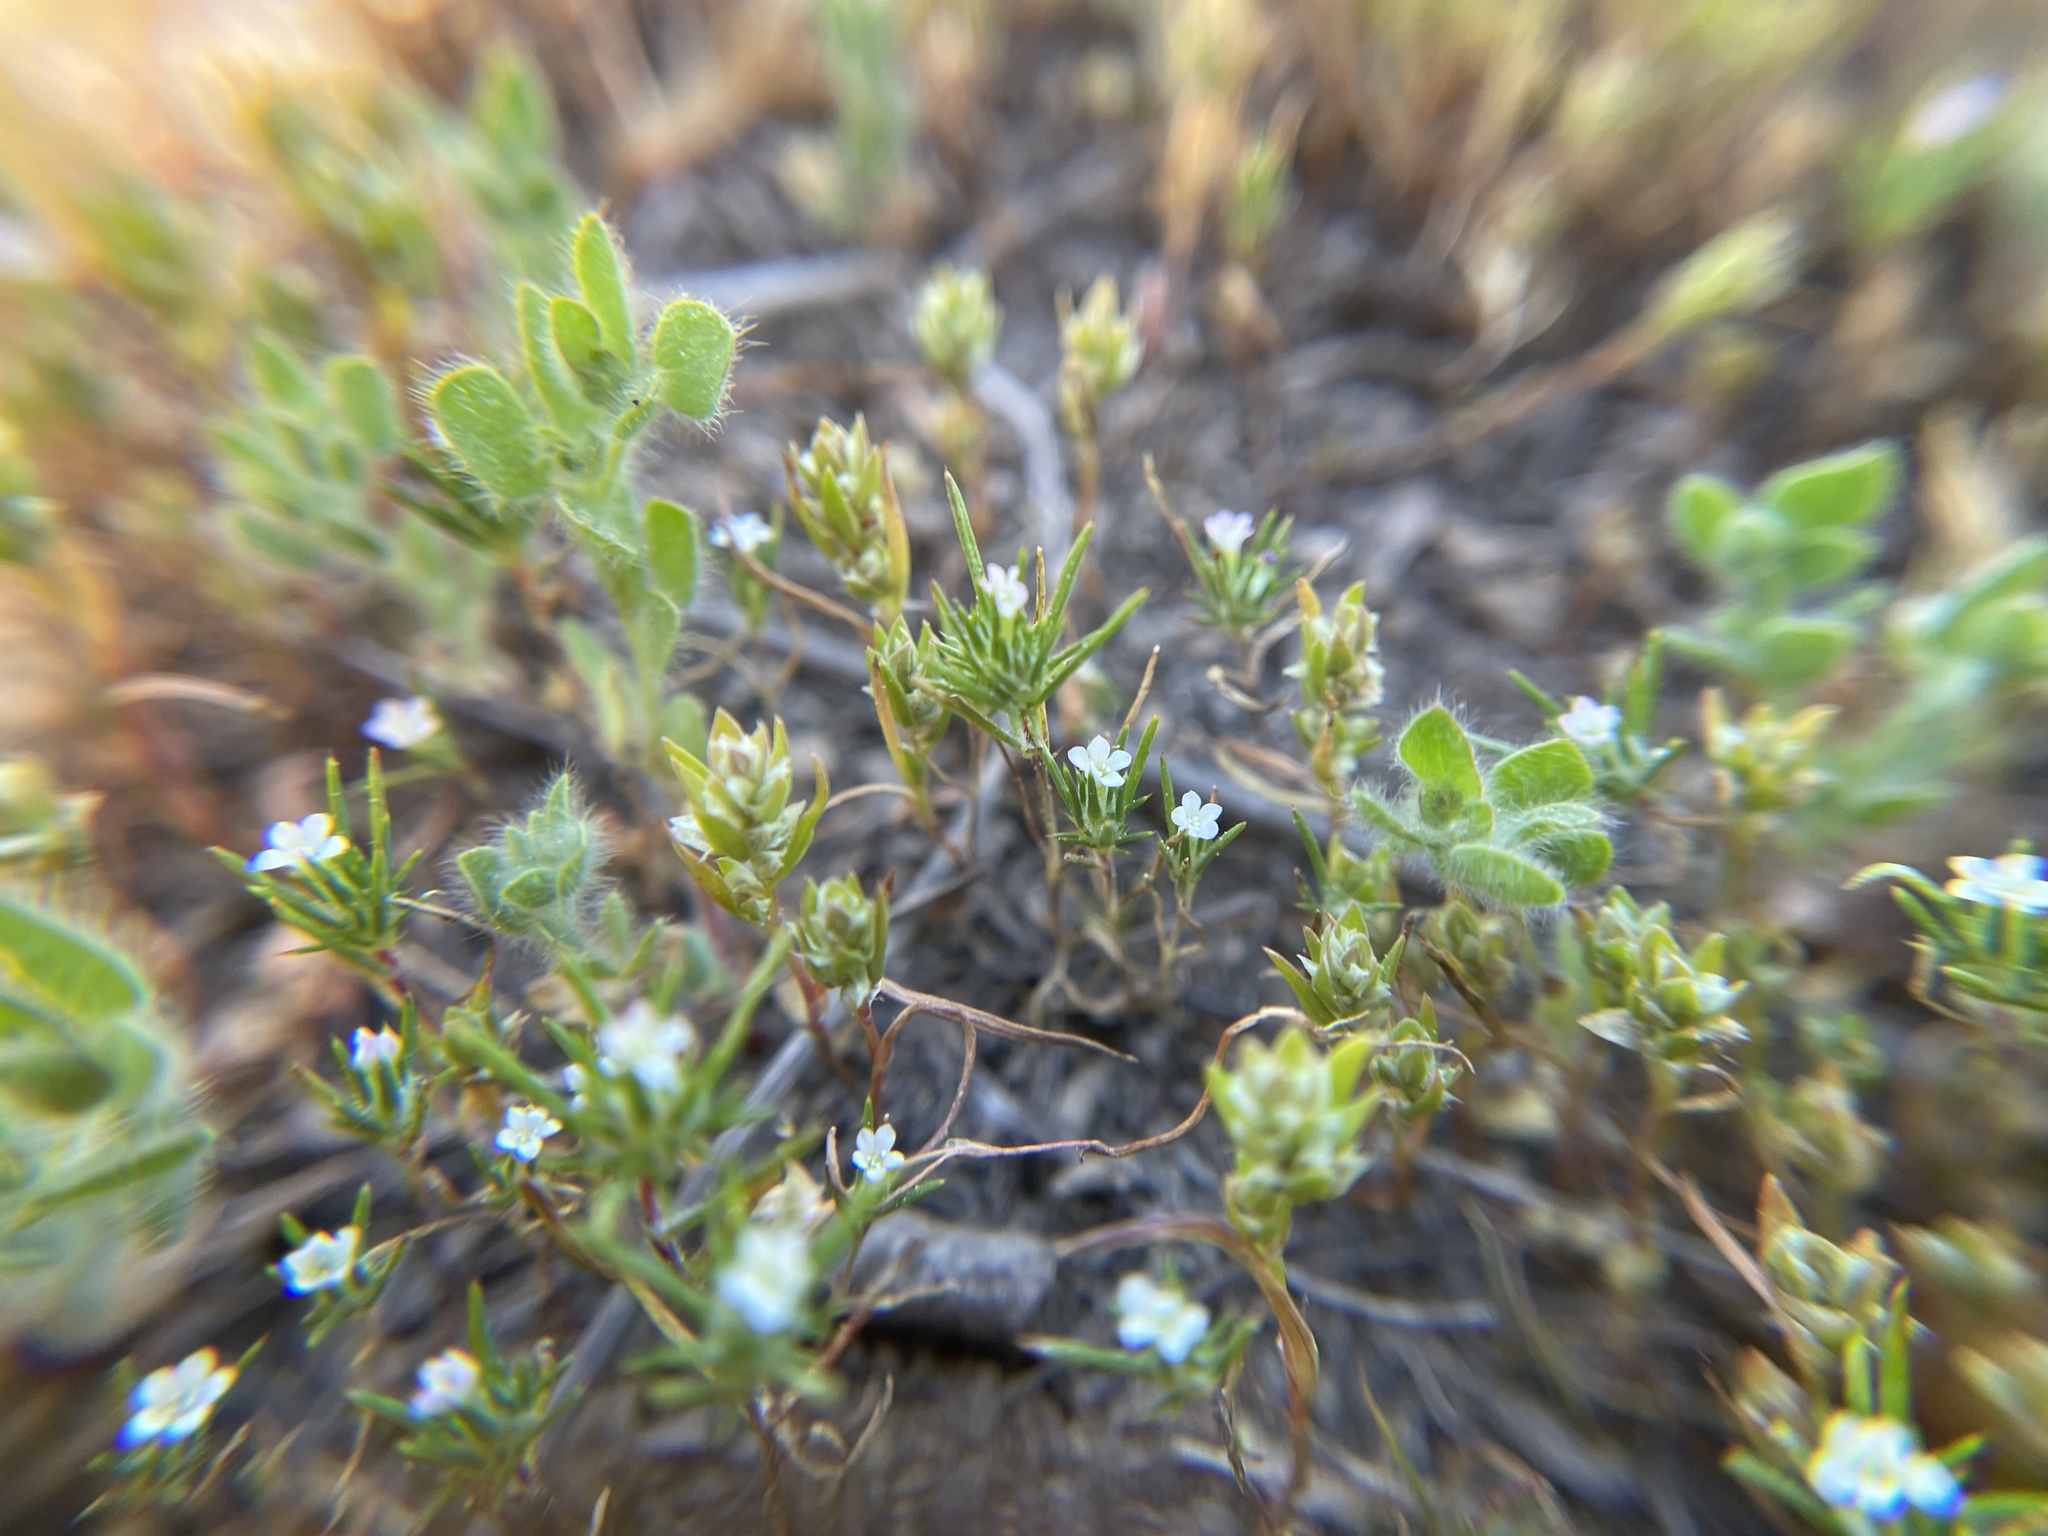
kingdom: Plantae
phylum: Tracheophyta
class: Magnoliopsida
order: Ericales
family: Polemoniaceae
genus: Navarretia
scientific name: Navarretia divaricata
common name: Mountain navarretia
